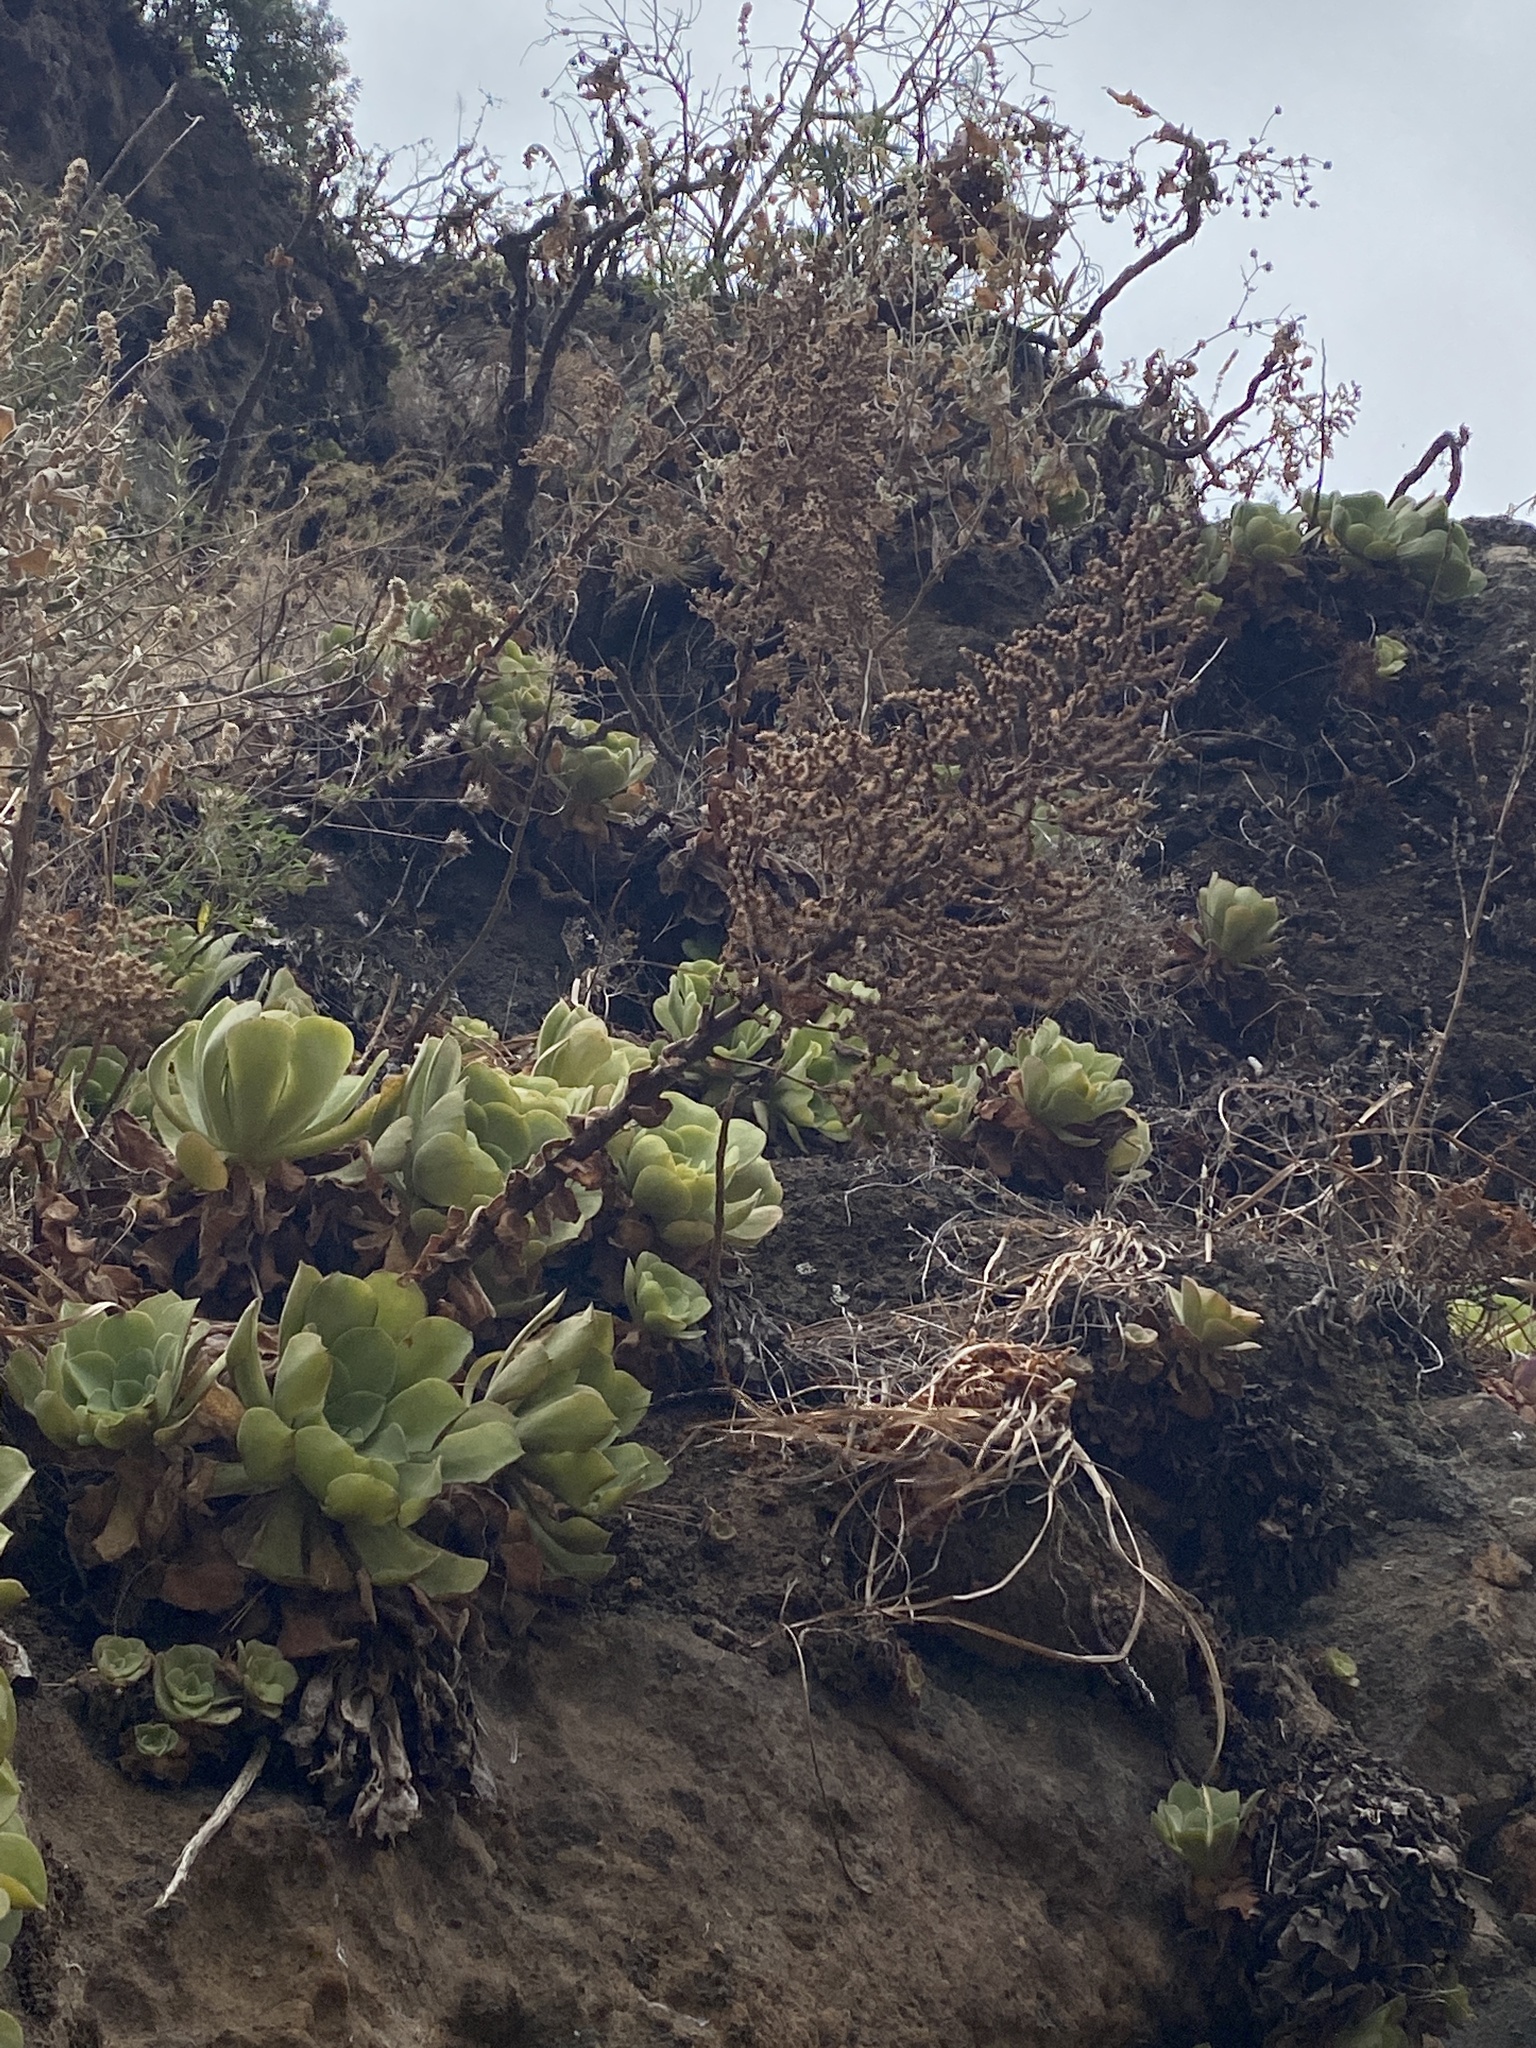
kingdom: Plantae
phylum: Tracheophyta
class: Magnoliopsida
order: Saxifragales
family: Crassulaceae
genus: Aeonium
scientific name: Aeonium canariense
